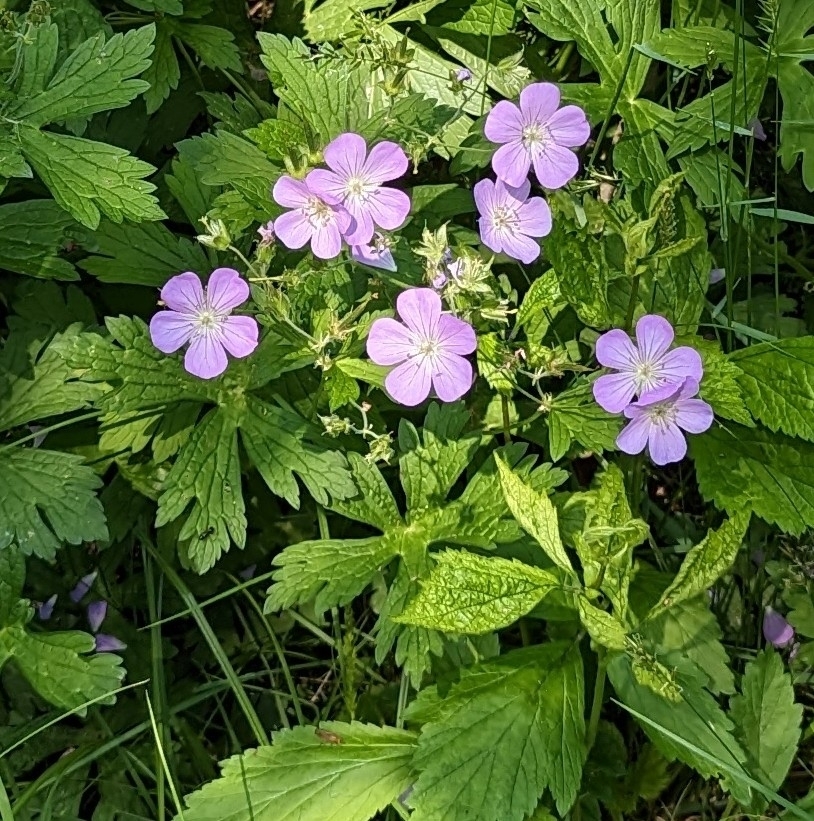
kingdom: Plantae
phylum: Tracheophyta
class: Magnoliopsida
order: Geraniales
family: Geraniaceae
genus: Geranium
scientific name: Geranium maculatum
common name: Spotted geranium
